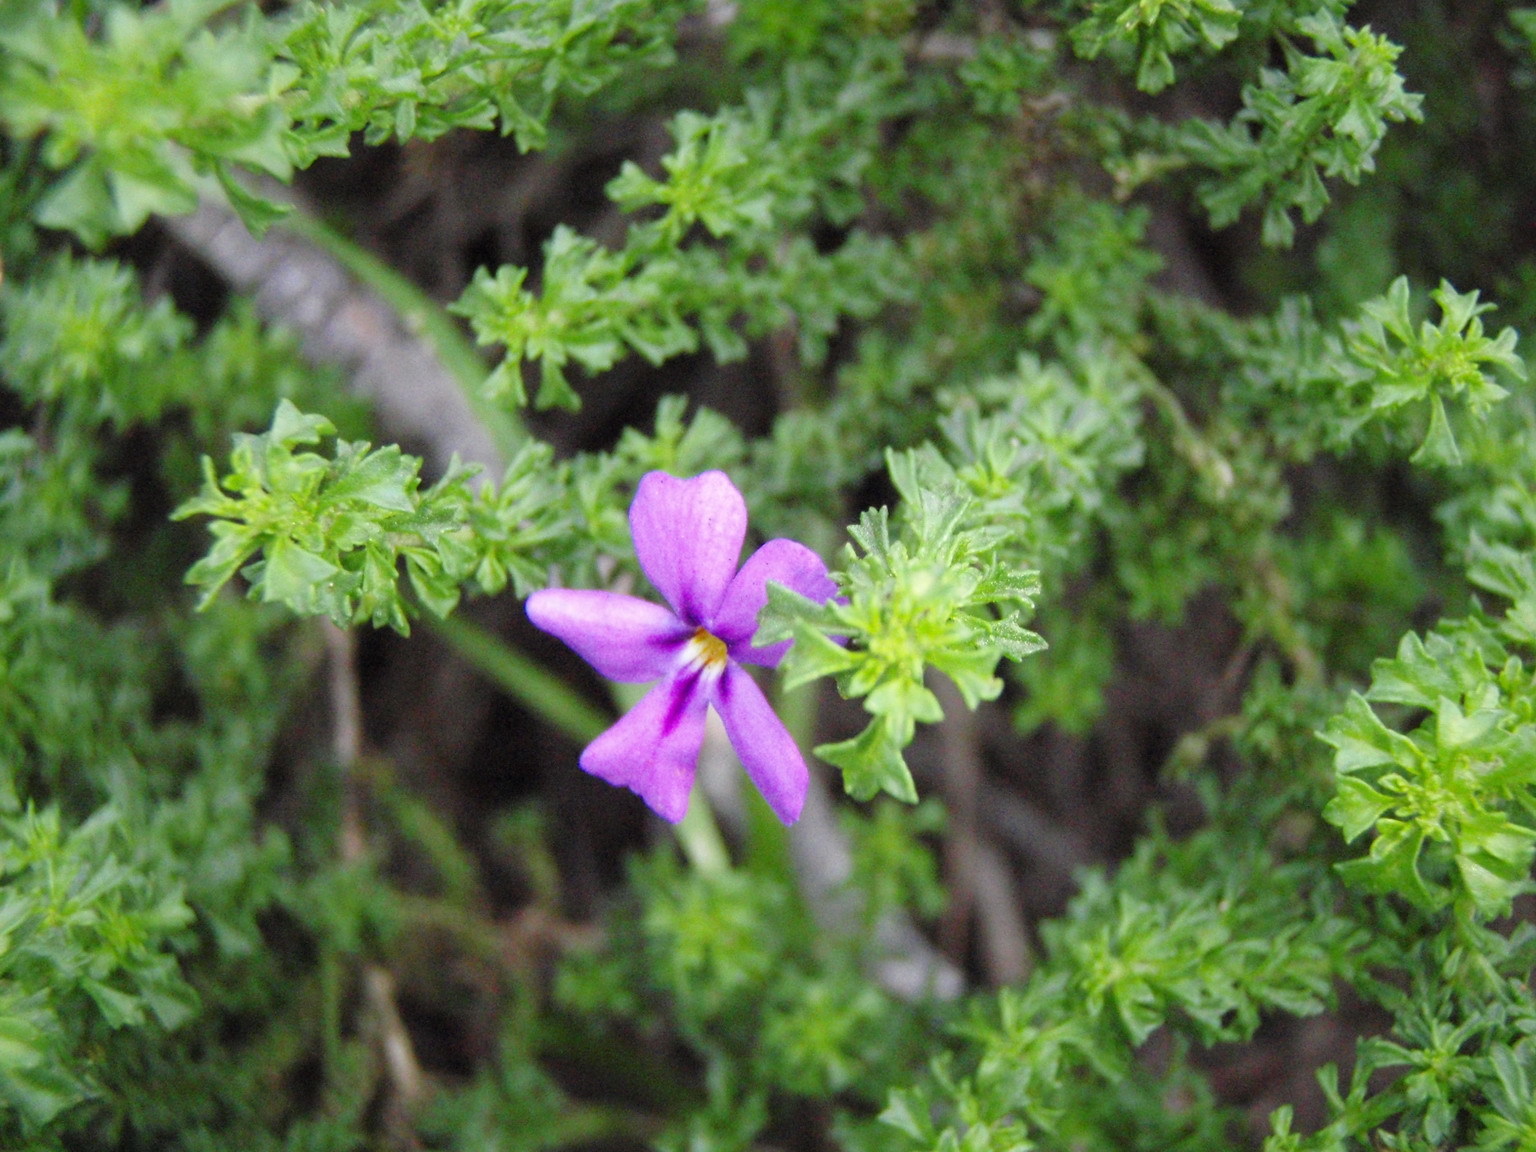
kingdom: Plantae
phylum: Tracheophyta
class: Magnoliopsida
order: Lamiales
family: Scrophulariaceae
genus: Jamesbrittenia
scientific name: Jamesbrittenia tenuifolia
